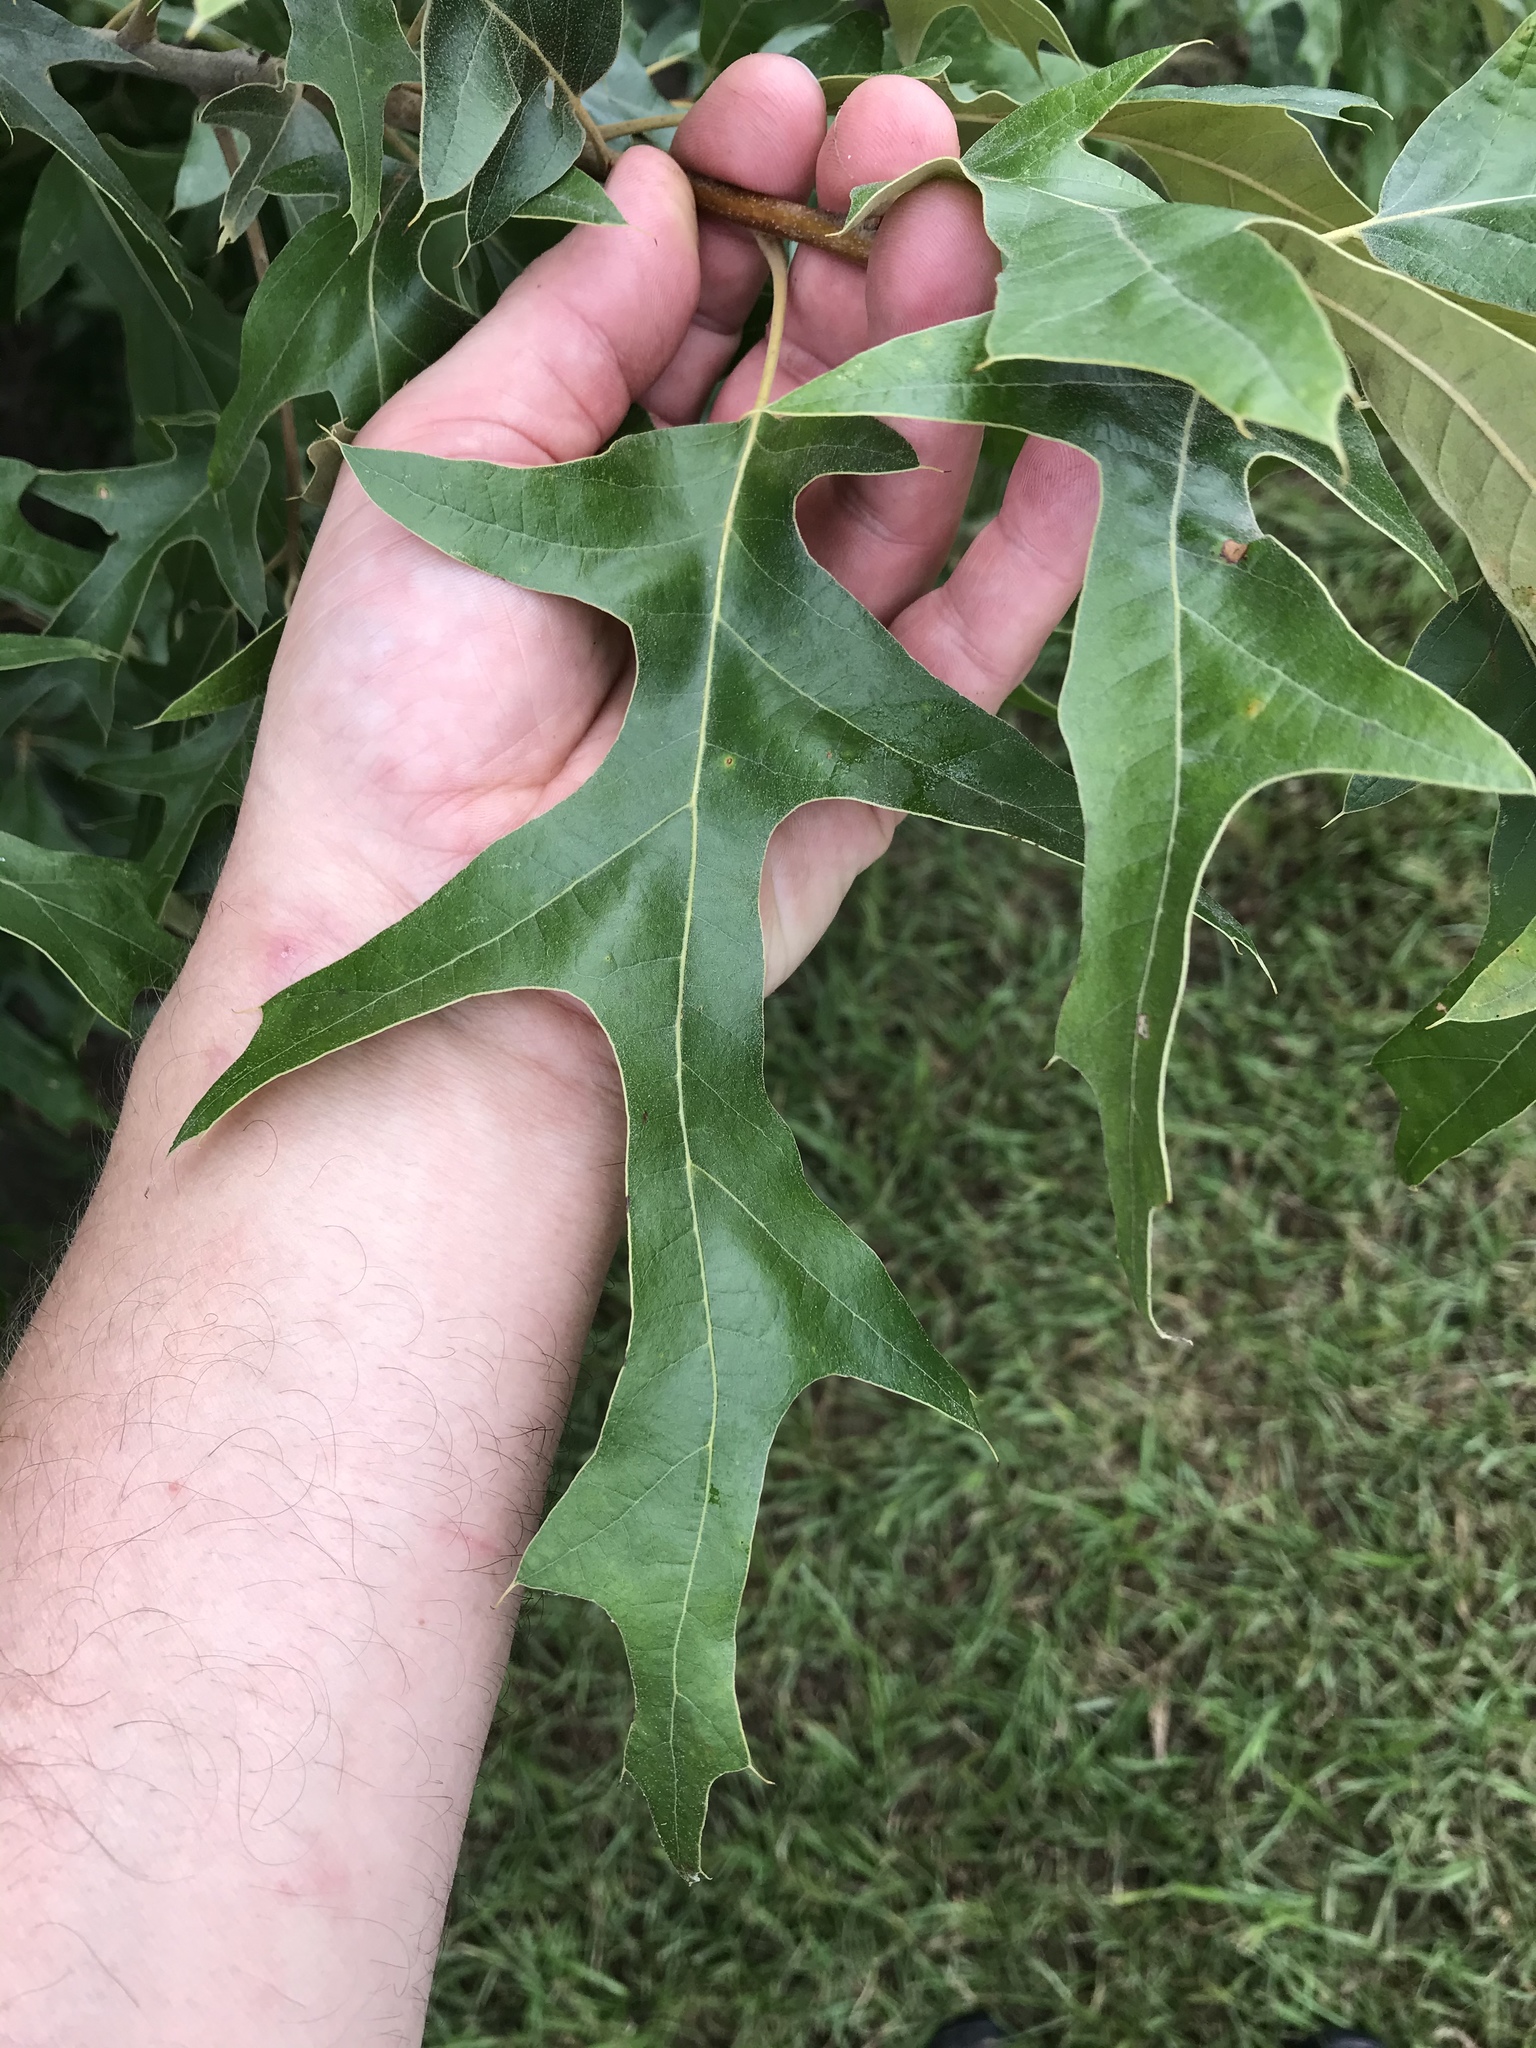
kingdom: Plantae
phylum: Tracheophyta
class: Magnoliopsida
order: Fagales
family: Fagaceae
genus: Quercus
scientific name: Quercus falcata
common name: Southern red oak
